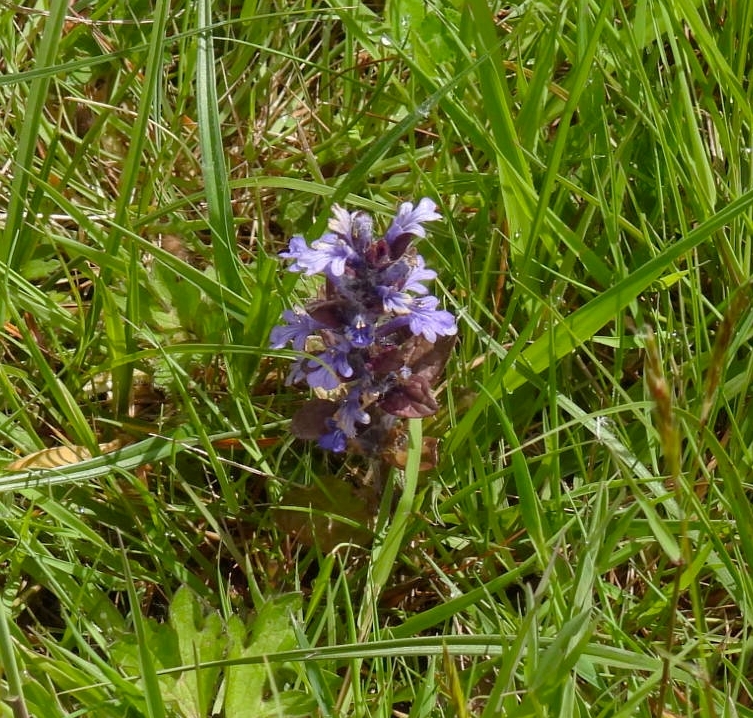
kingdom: Plantae
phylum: Tracheophyta
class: Magnoliopsida
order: Lamiales
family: Lamiaceae
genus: Ajuga
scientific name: Ajuga reptans
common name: Bugle
